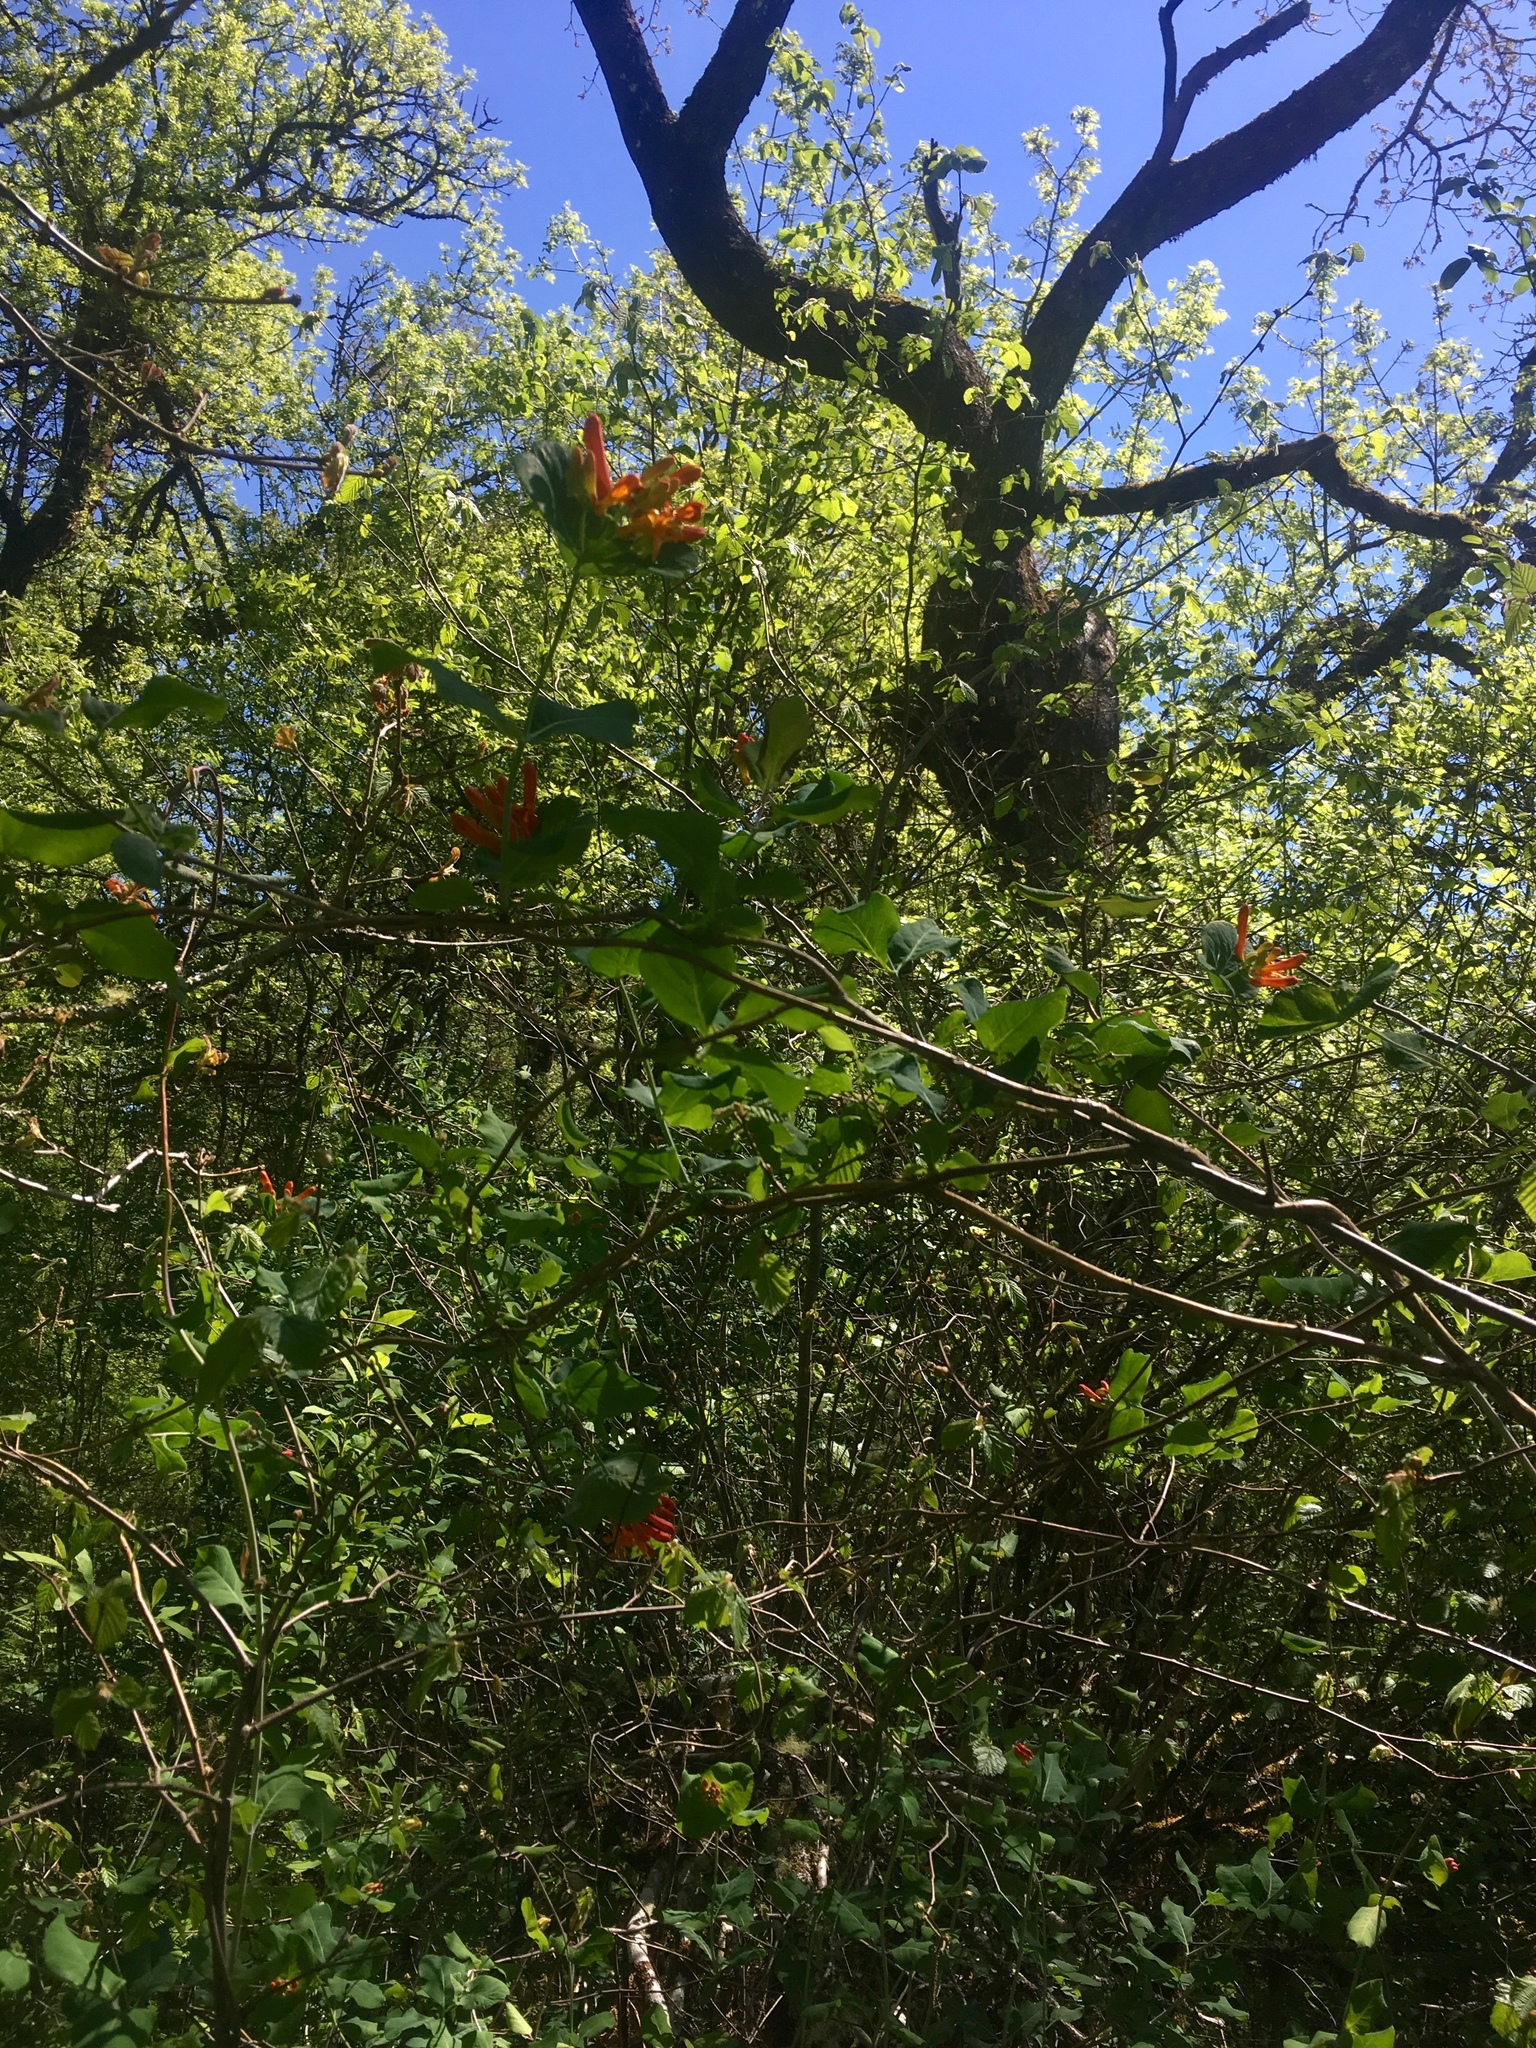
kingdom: Plantae
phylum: Tracheophyta
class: Magnoliopsida
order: Dipsacales
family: Caprifoliaceae
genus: Lonicera
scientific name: Lonicera ciliosa
